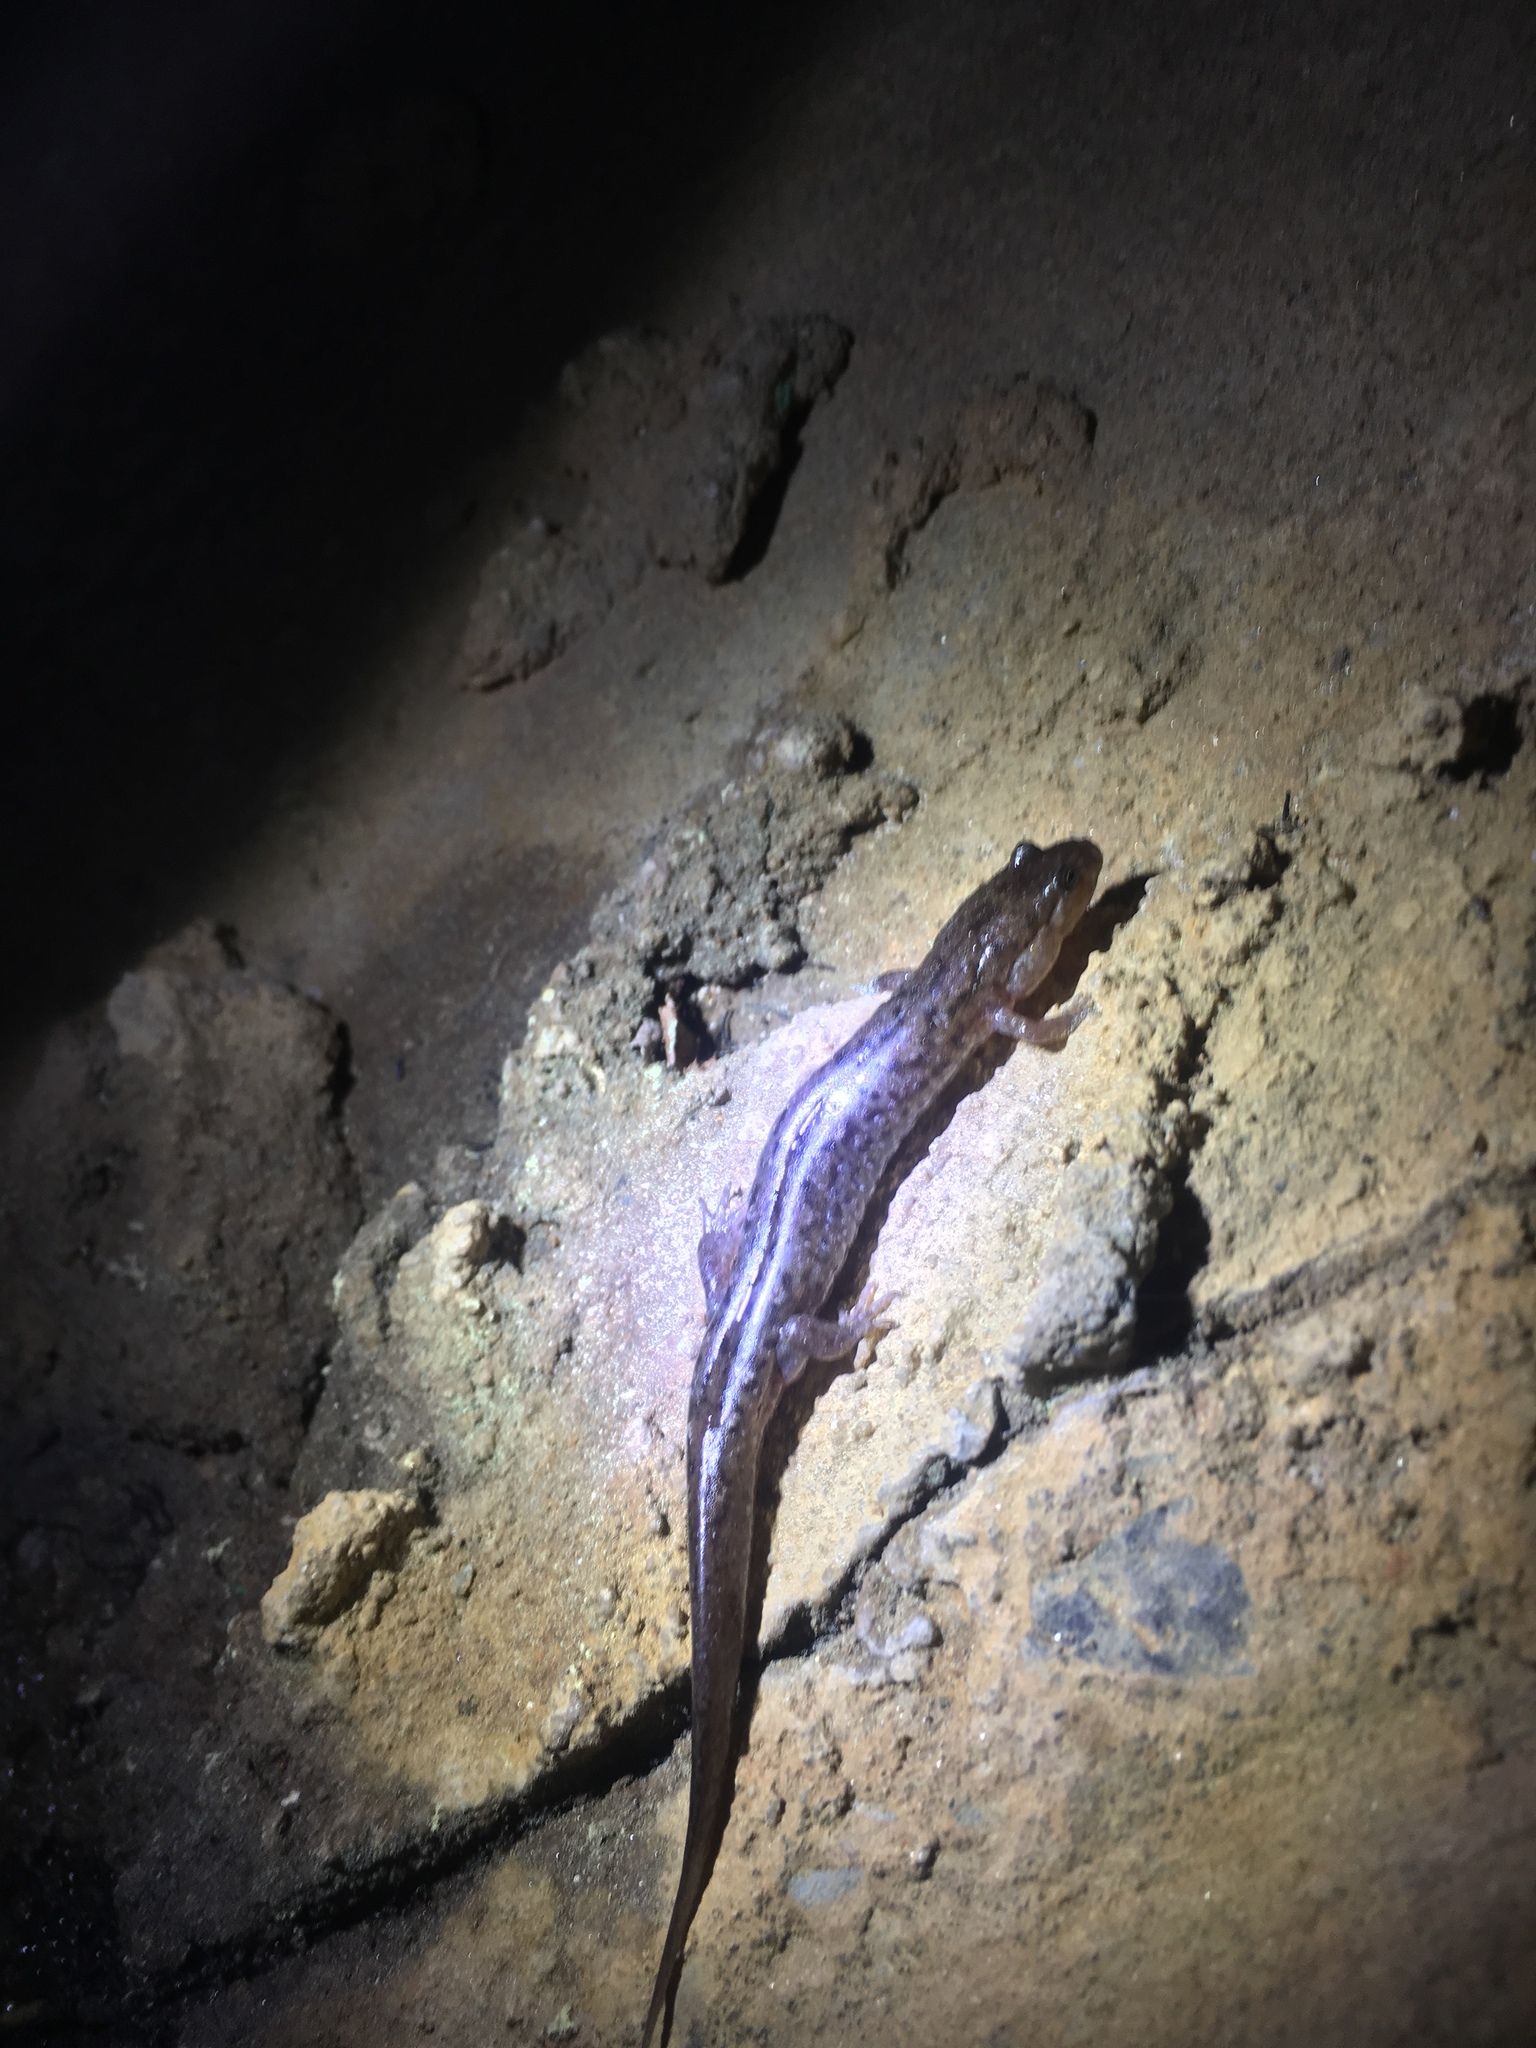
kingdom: Animalia
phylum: Chordata
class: Amphibia
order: Caudata
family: Plethodontidae
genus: Desmognathus
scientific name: Desmognathus
